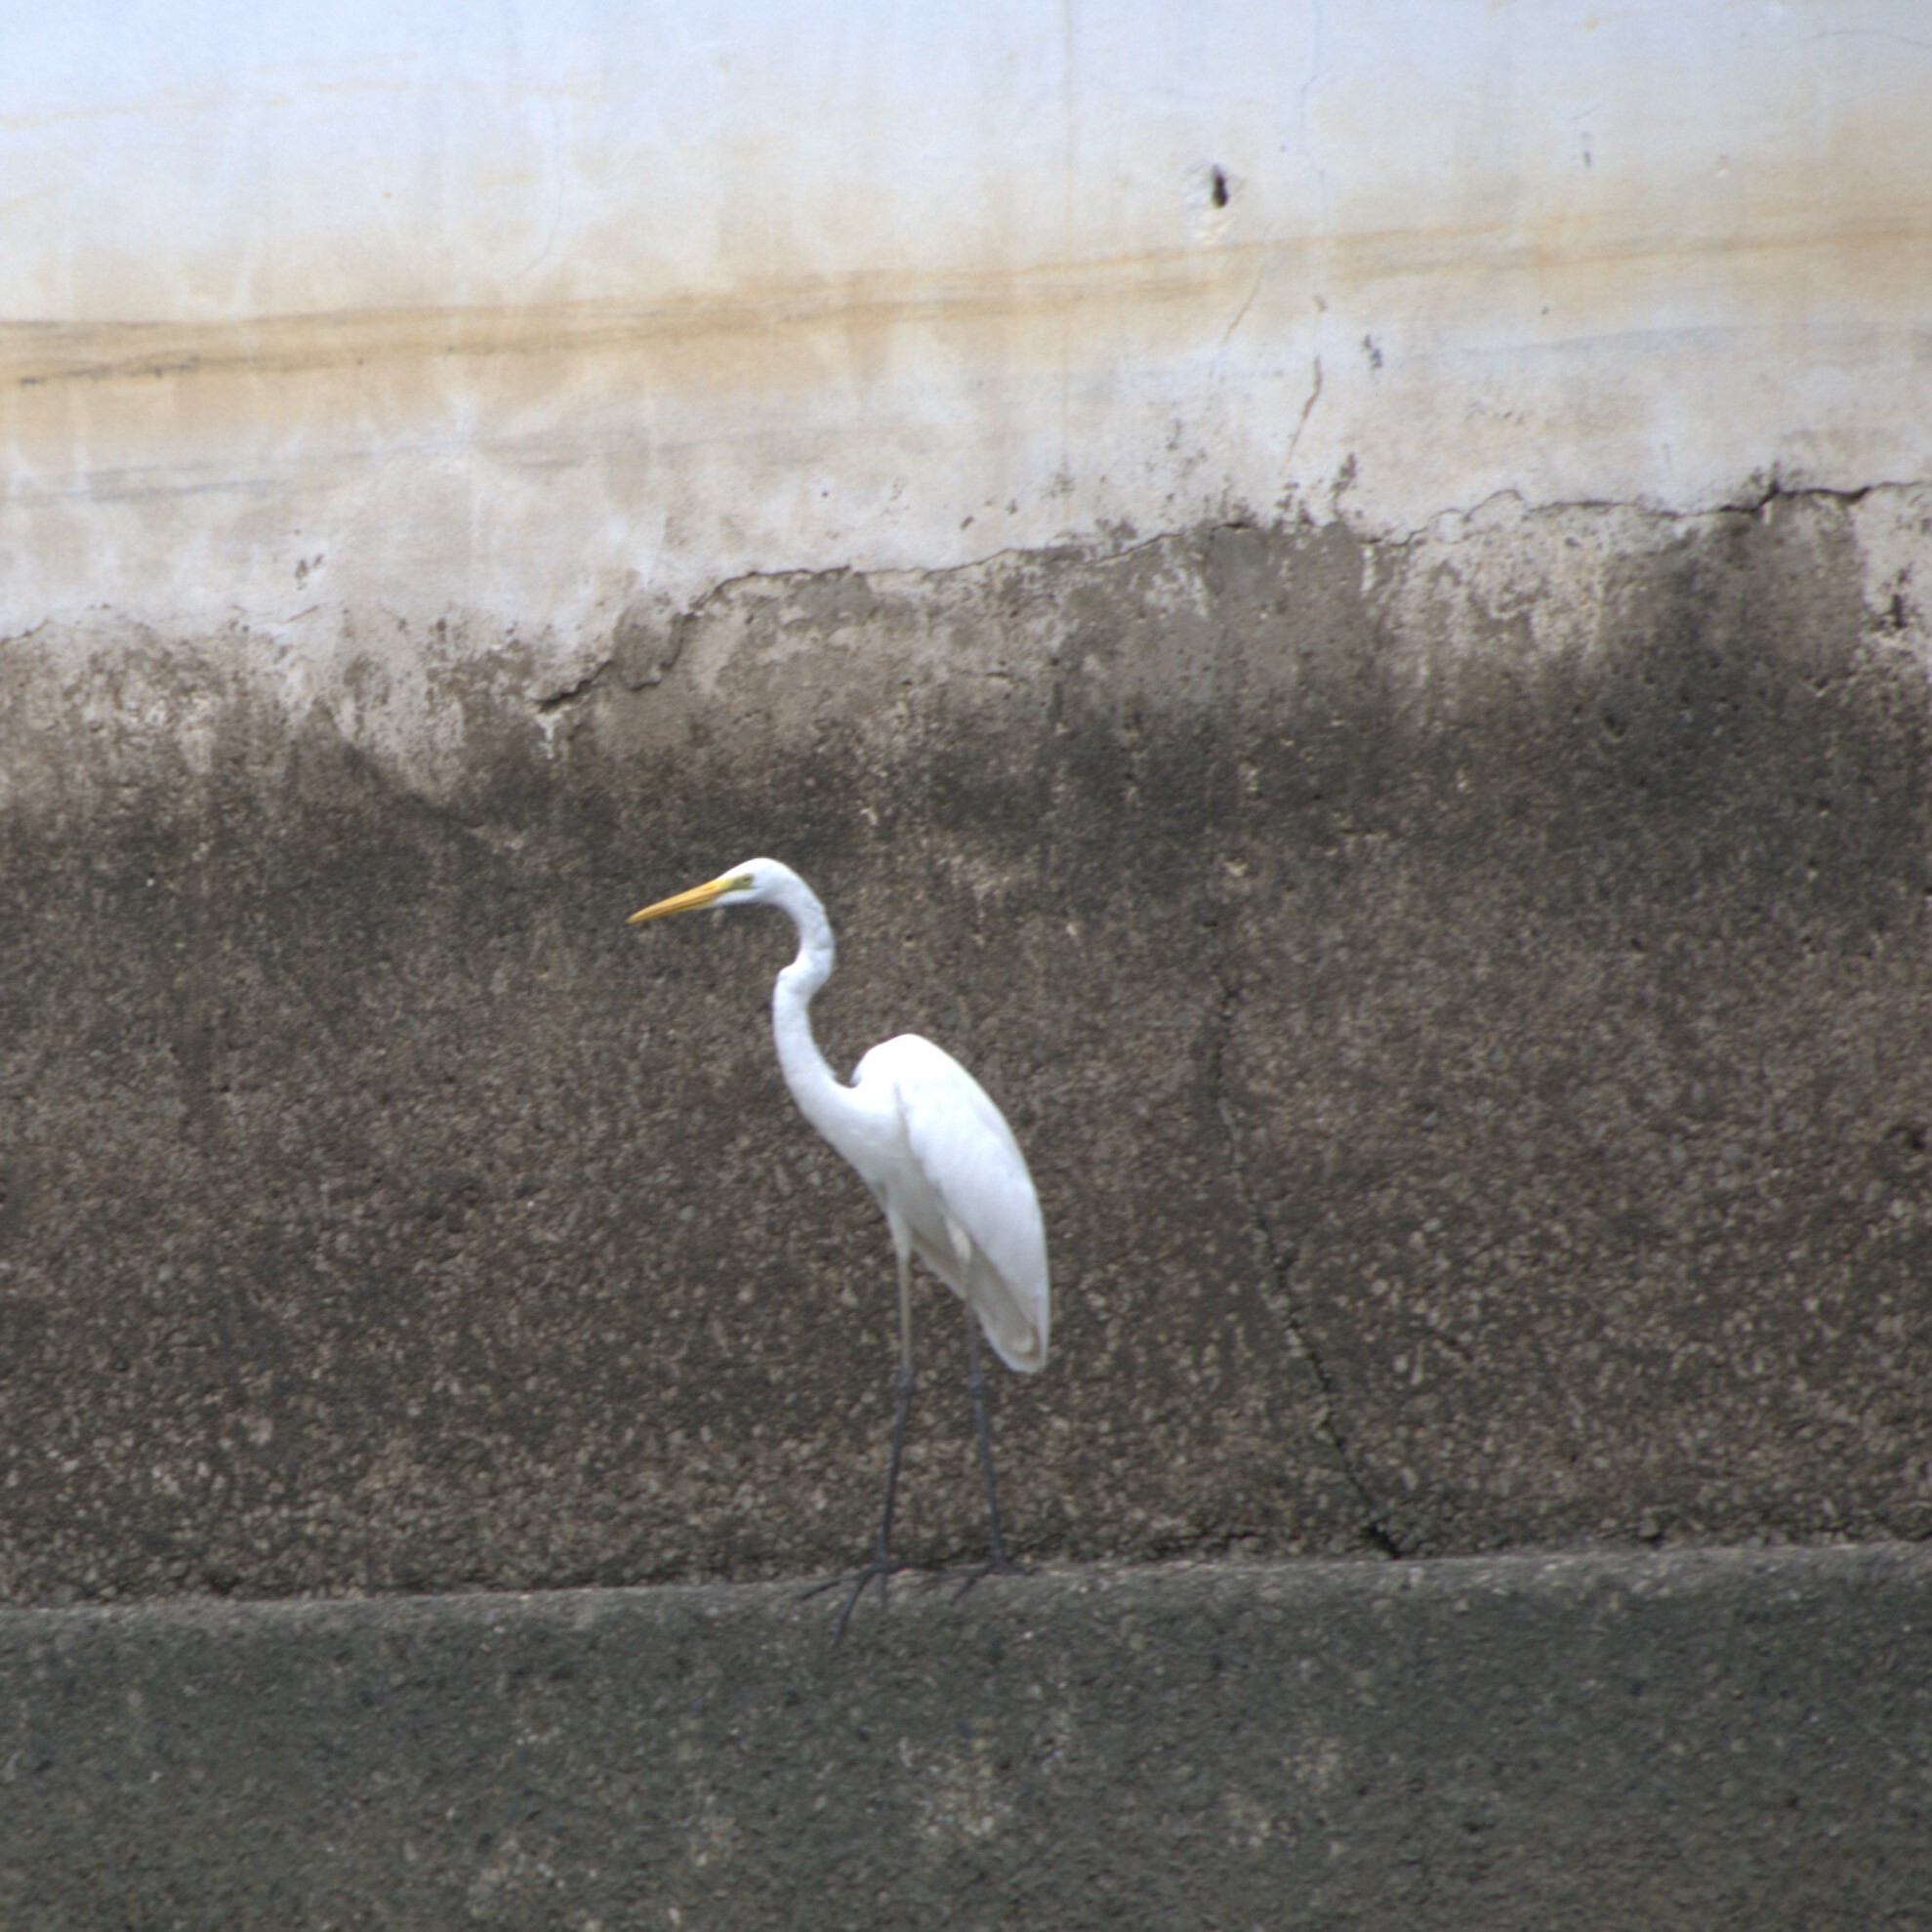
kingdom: Animalia
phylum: Chordata
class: Aves
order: Pelecaniformes
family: Ardeidae
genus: Ardea
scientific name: Ardea alba
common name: Great egret
